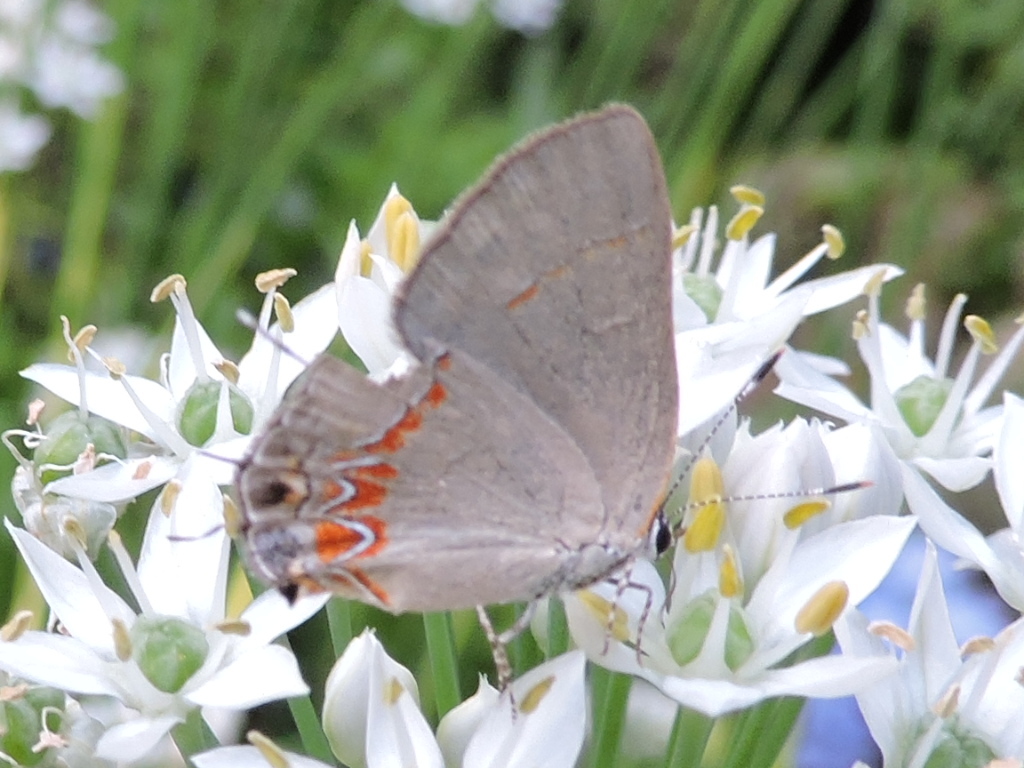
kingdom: Animalia
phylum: Arthropoda
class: Insecta
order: Lepidoptera
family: Lycaenidae
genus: Calycopis
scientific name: Calycopis cecrops
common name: Red-banded hairstreak
